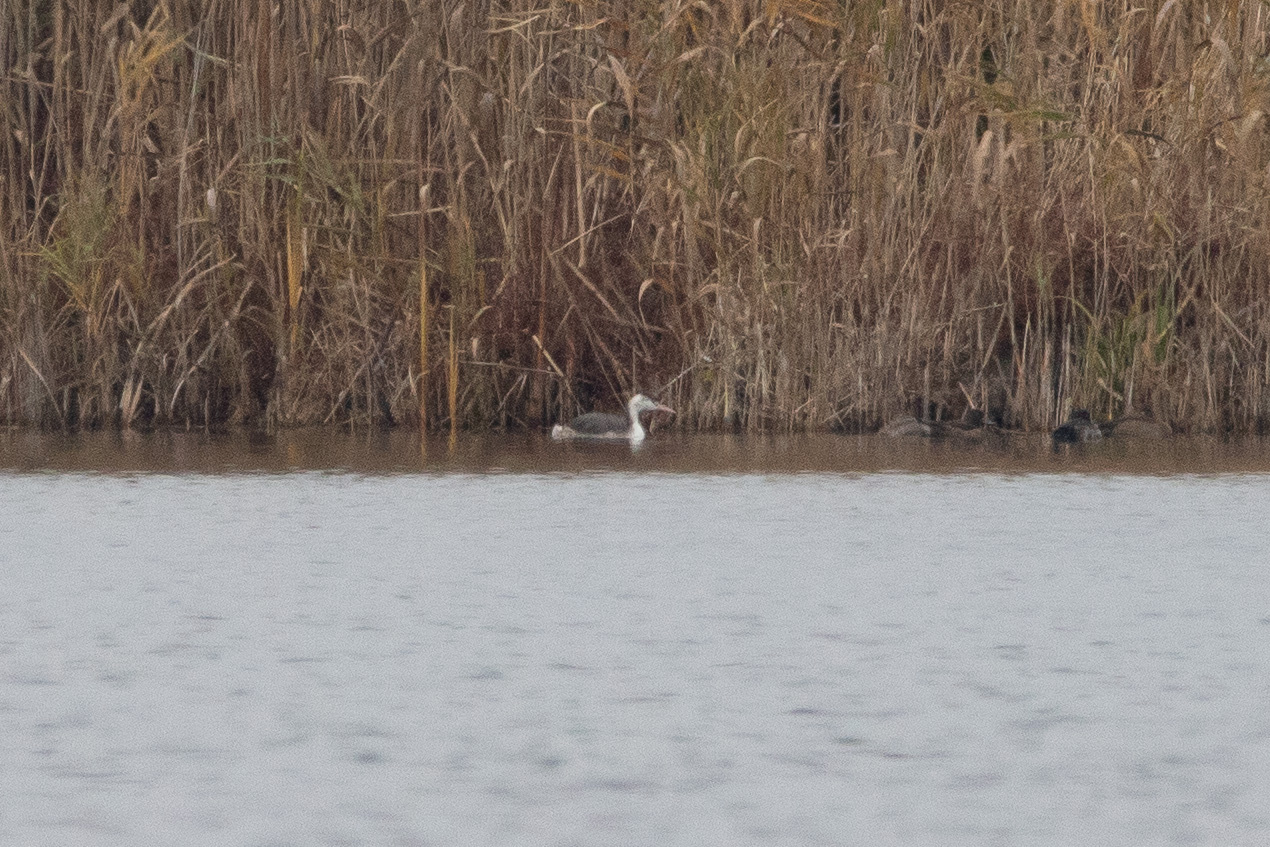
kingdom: Animalia
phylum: Chordata
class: Aves
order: Podicipediformes
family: Podicipedidae
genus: Podiceps
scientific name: Podiceps cristatus
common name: Great crested grebe
